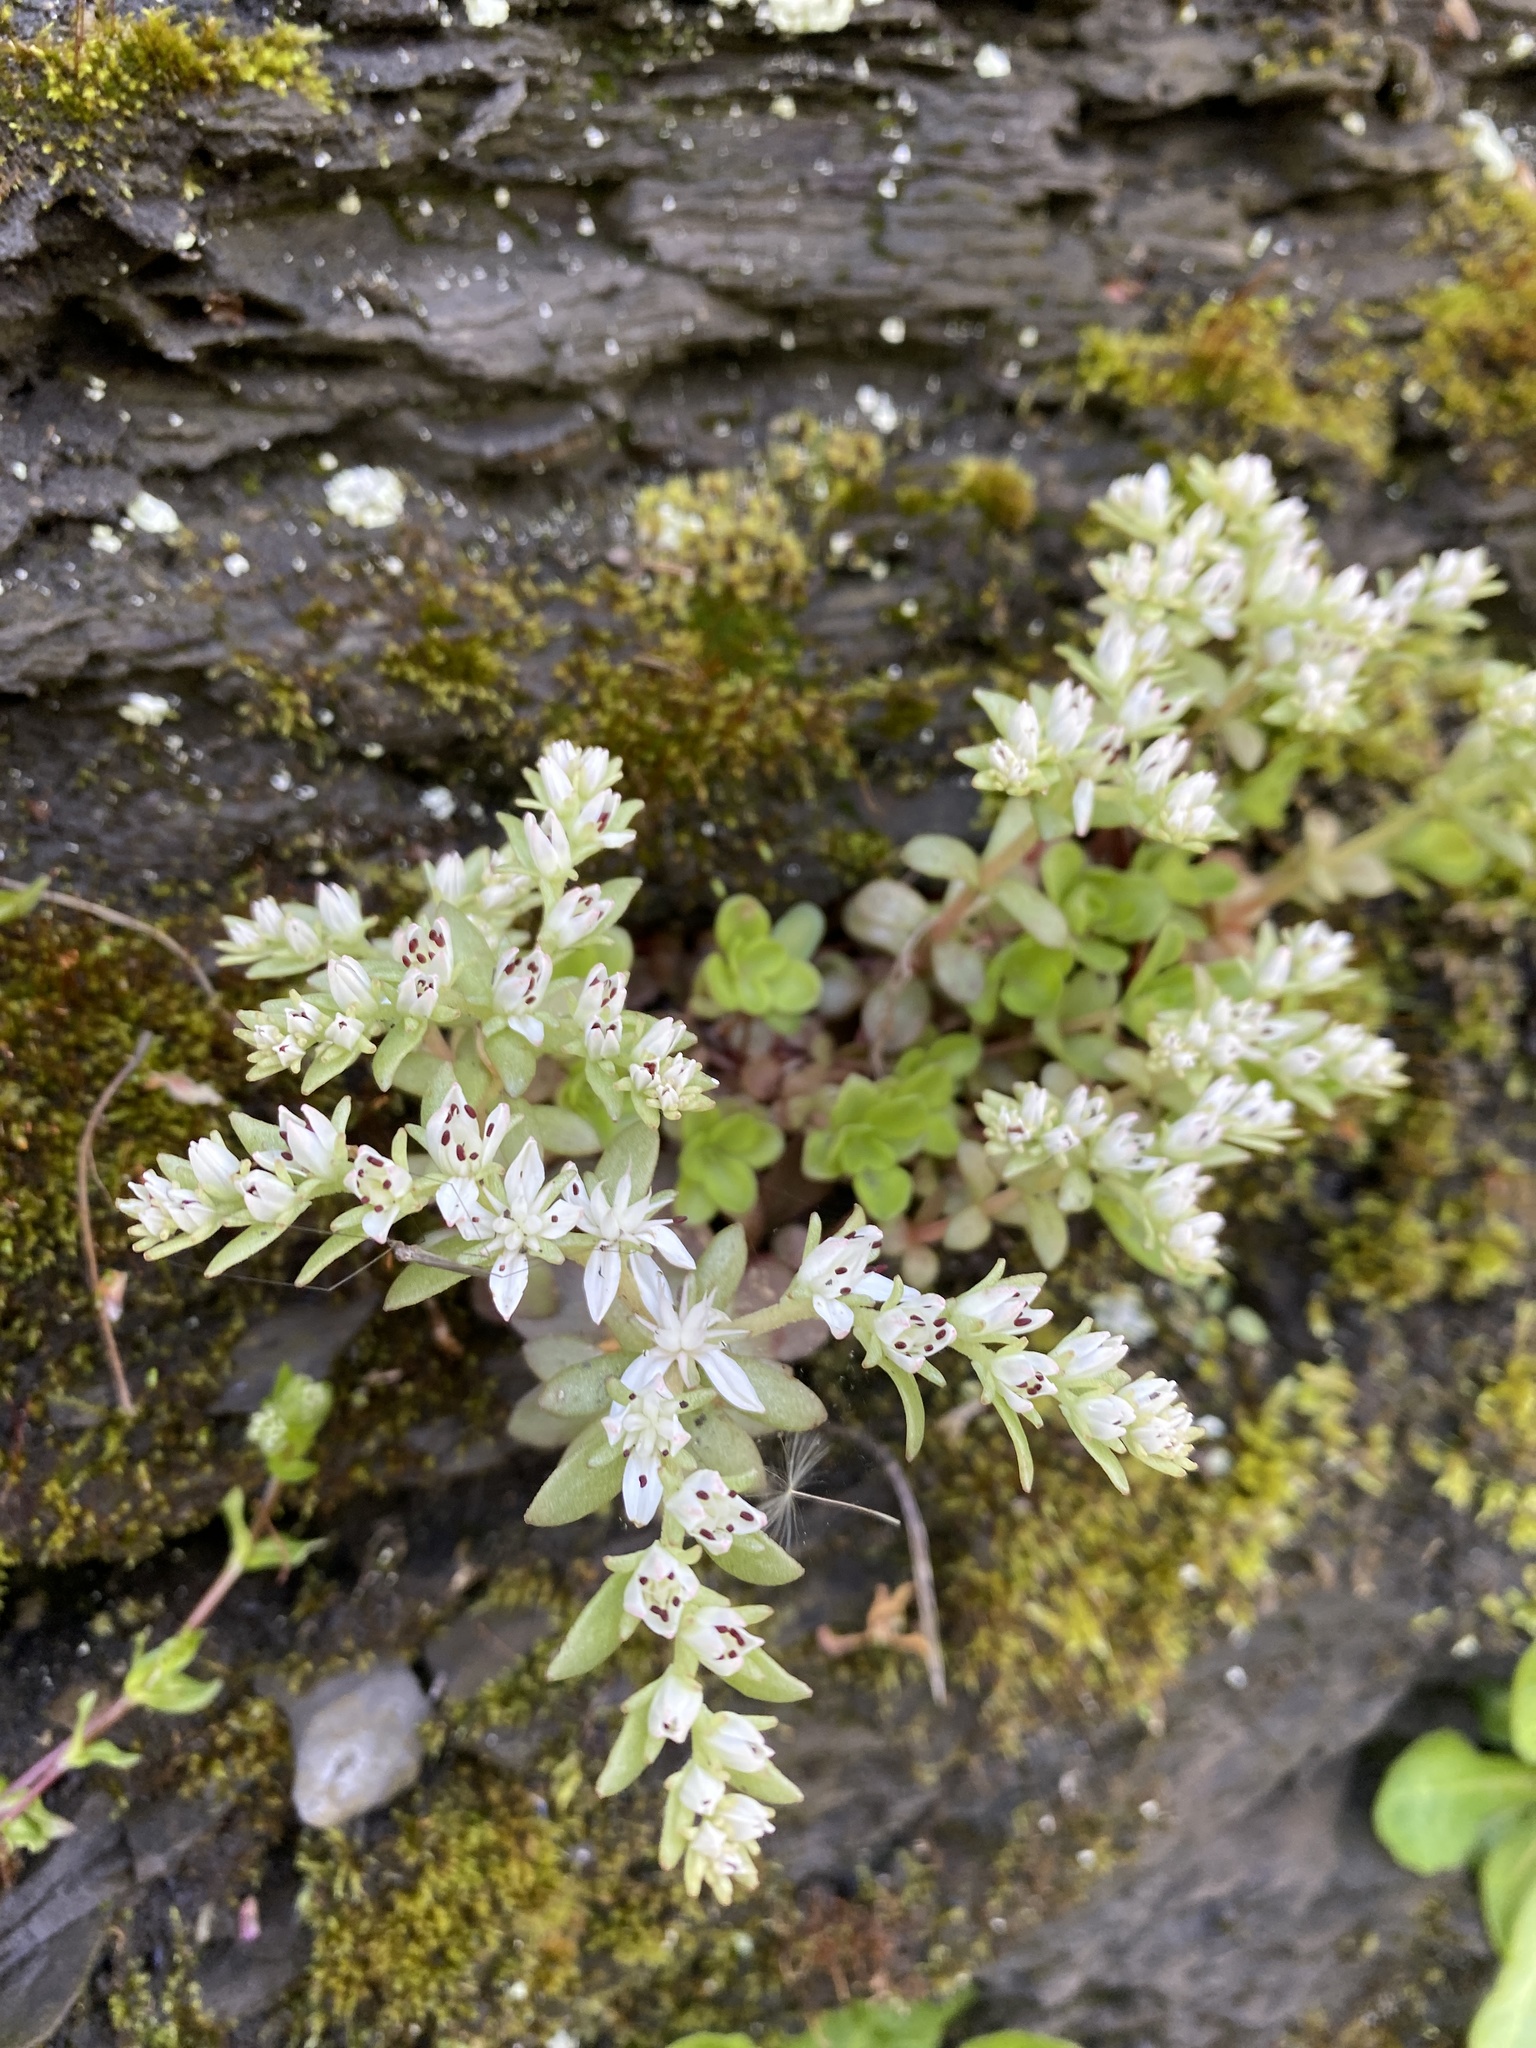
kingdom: Plantae
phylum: Tracheophyta
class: Magnoliopsida
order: Saxifragales
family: Crassulaceae
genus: Sedum
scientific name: Sedum ternatum
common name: Wild stonecrop
